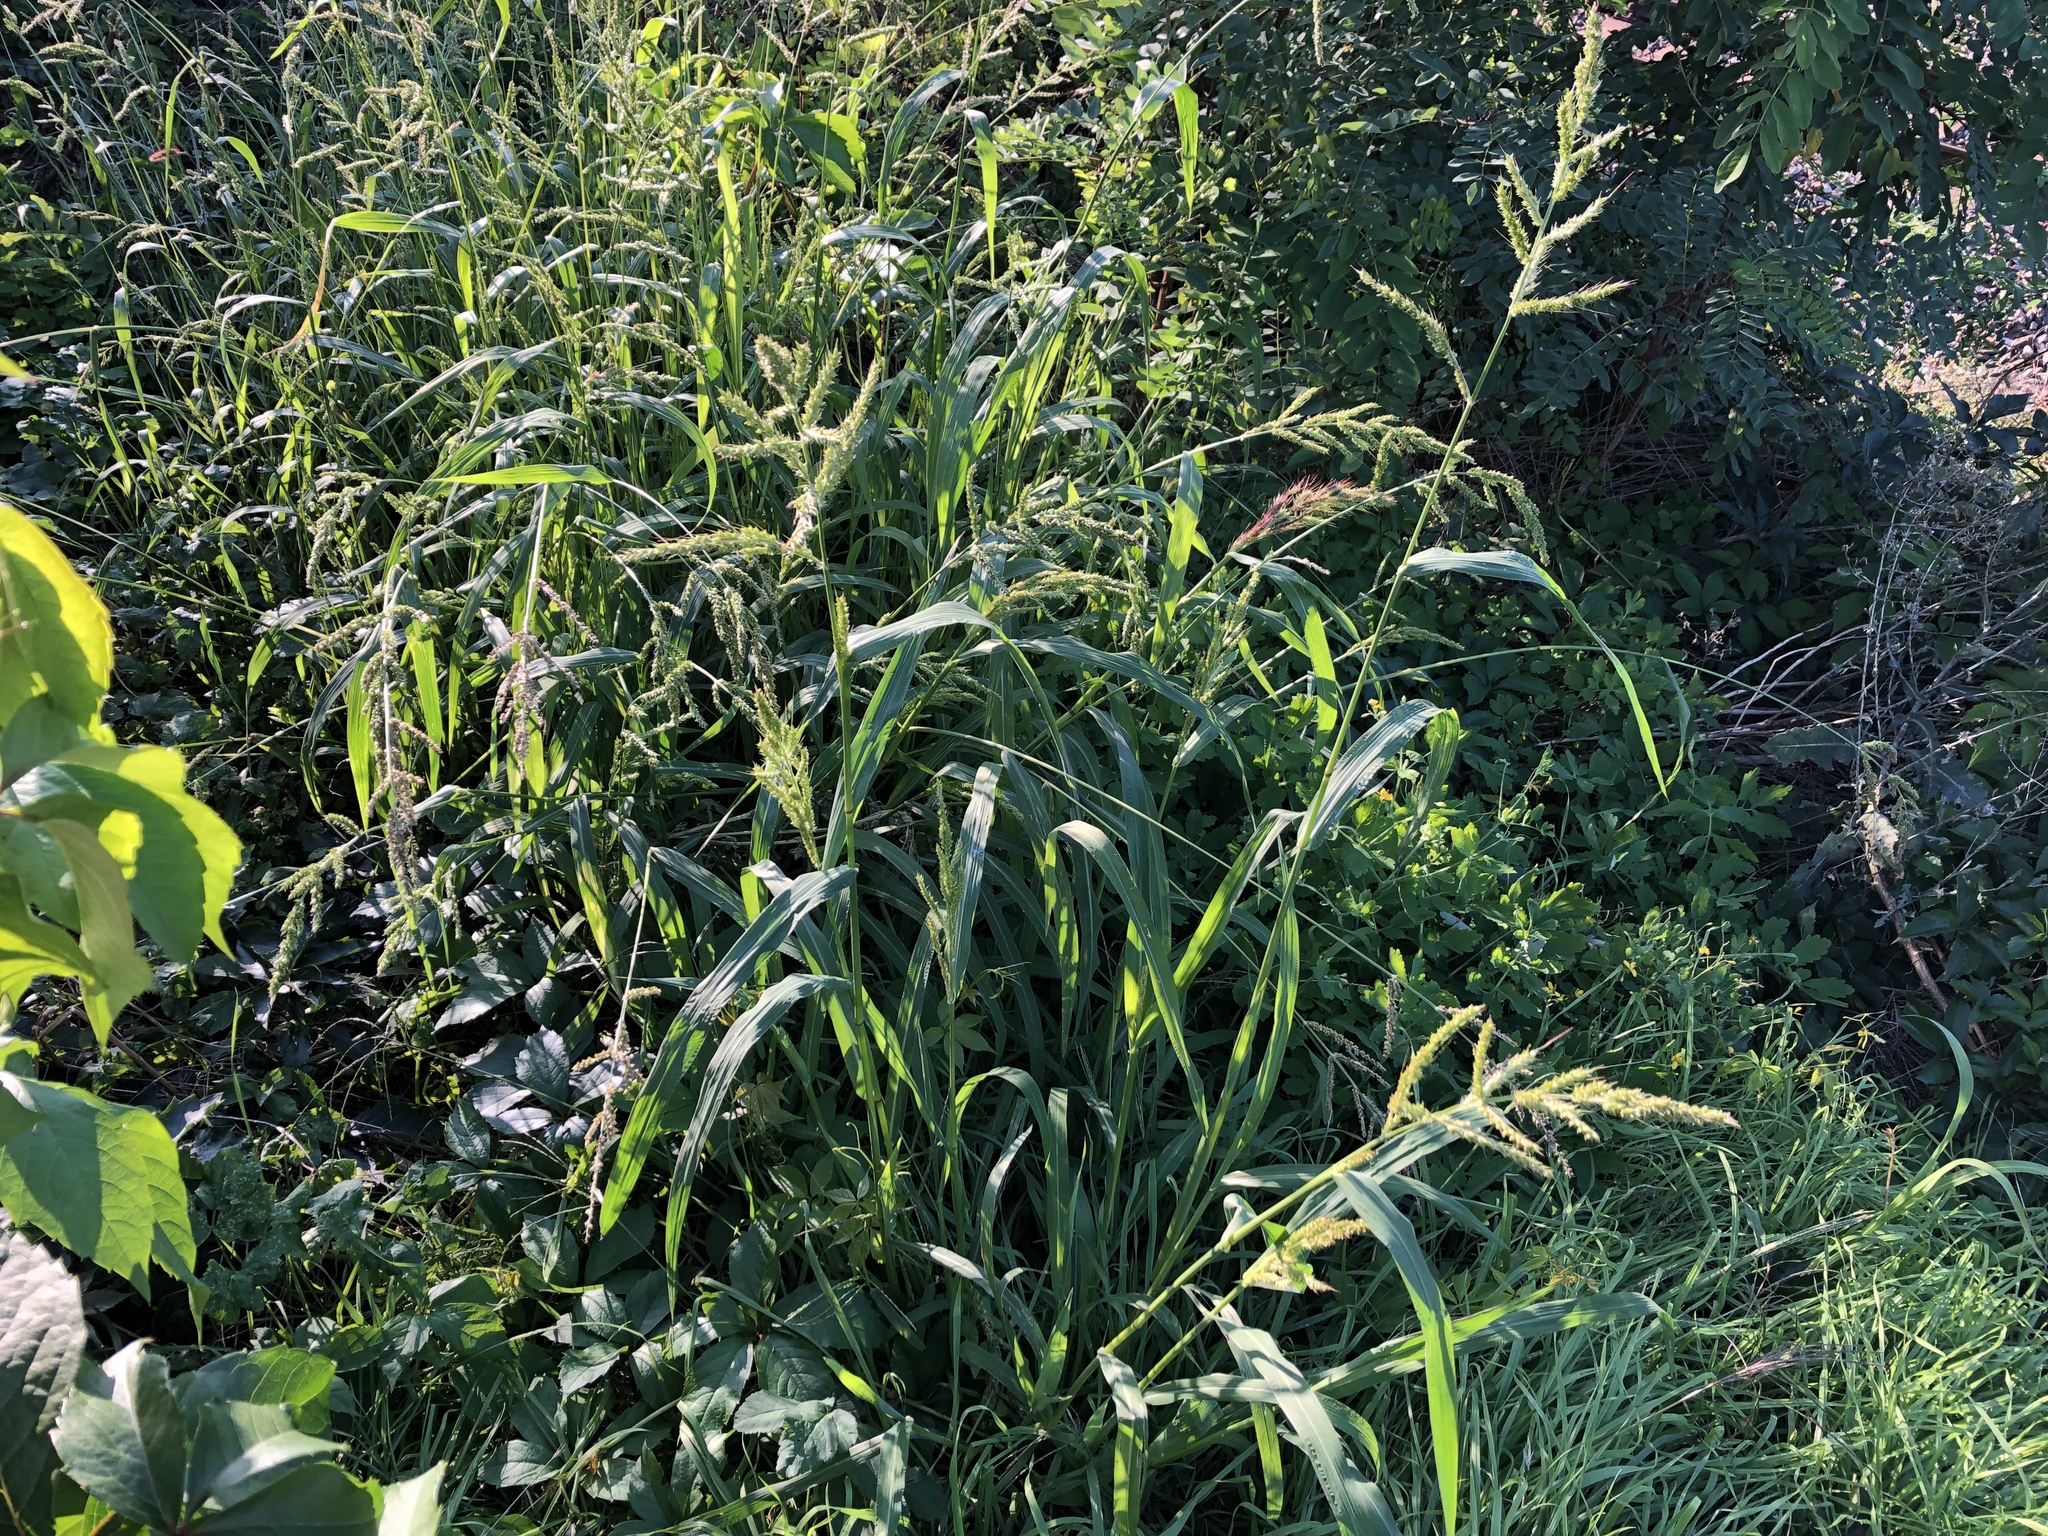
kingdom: Plantae
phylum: Tracheophyta
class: Liliopsida
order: Poales
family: Poaceae
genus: Echinochloa
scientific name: Echinochloa crus-galli
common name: Cockspur
